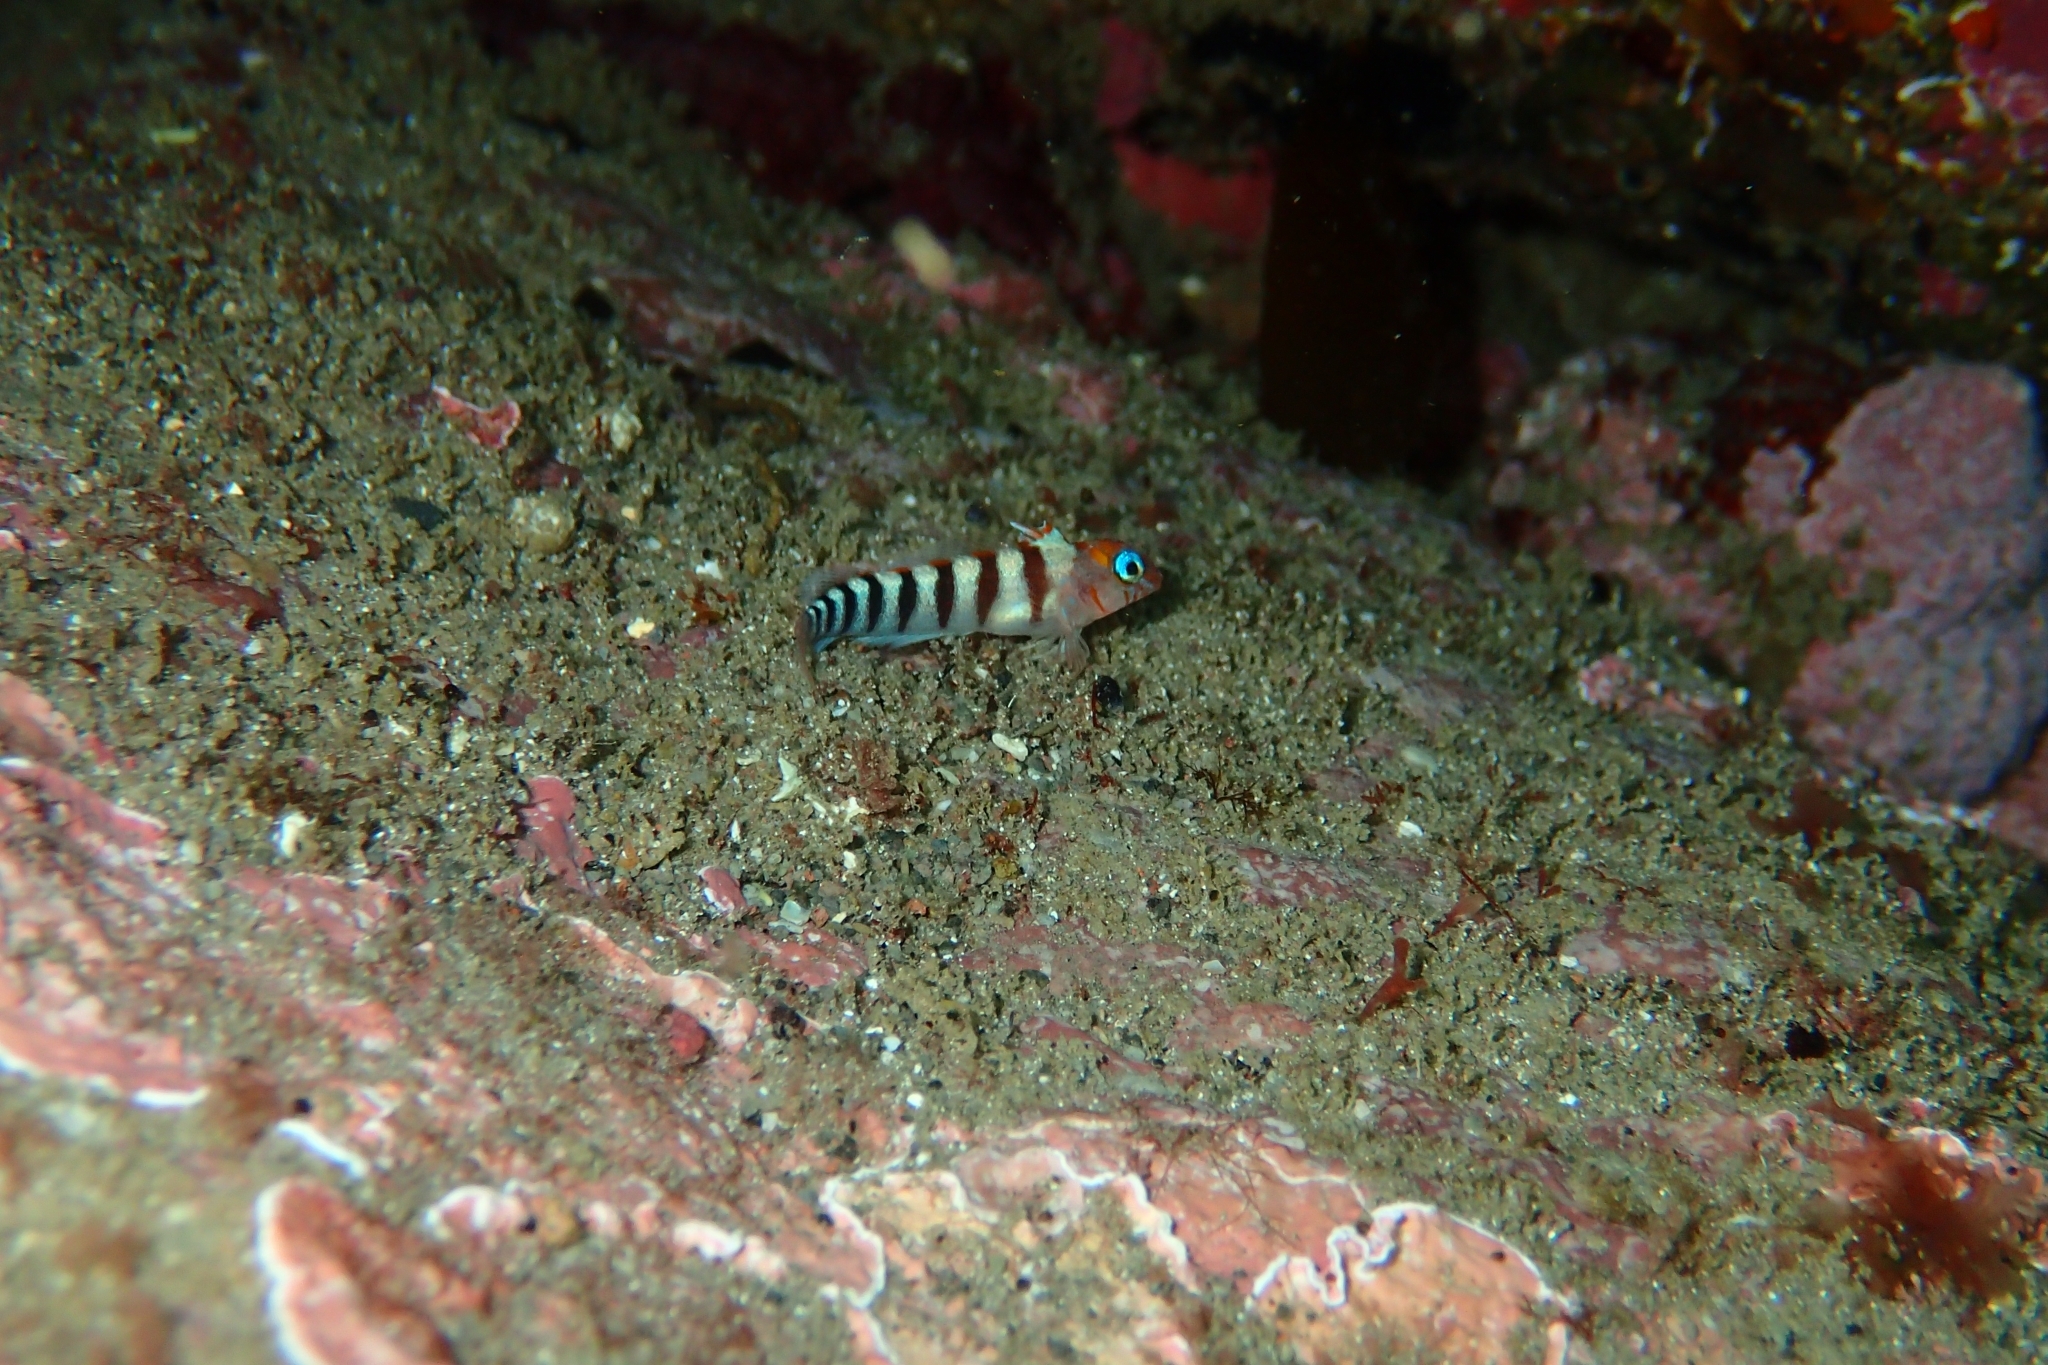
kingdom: Animalia
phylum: Chordata
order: Perciformes
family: Tripterygiidae
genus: Notoclinops
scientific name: Notoclinops segmentatus
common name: Blue-eyed triplefin
